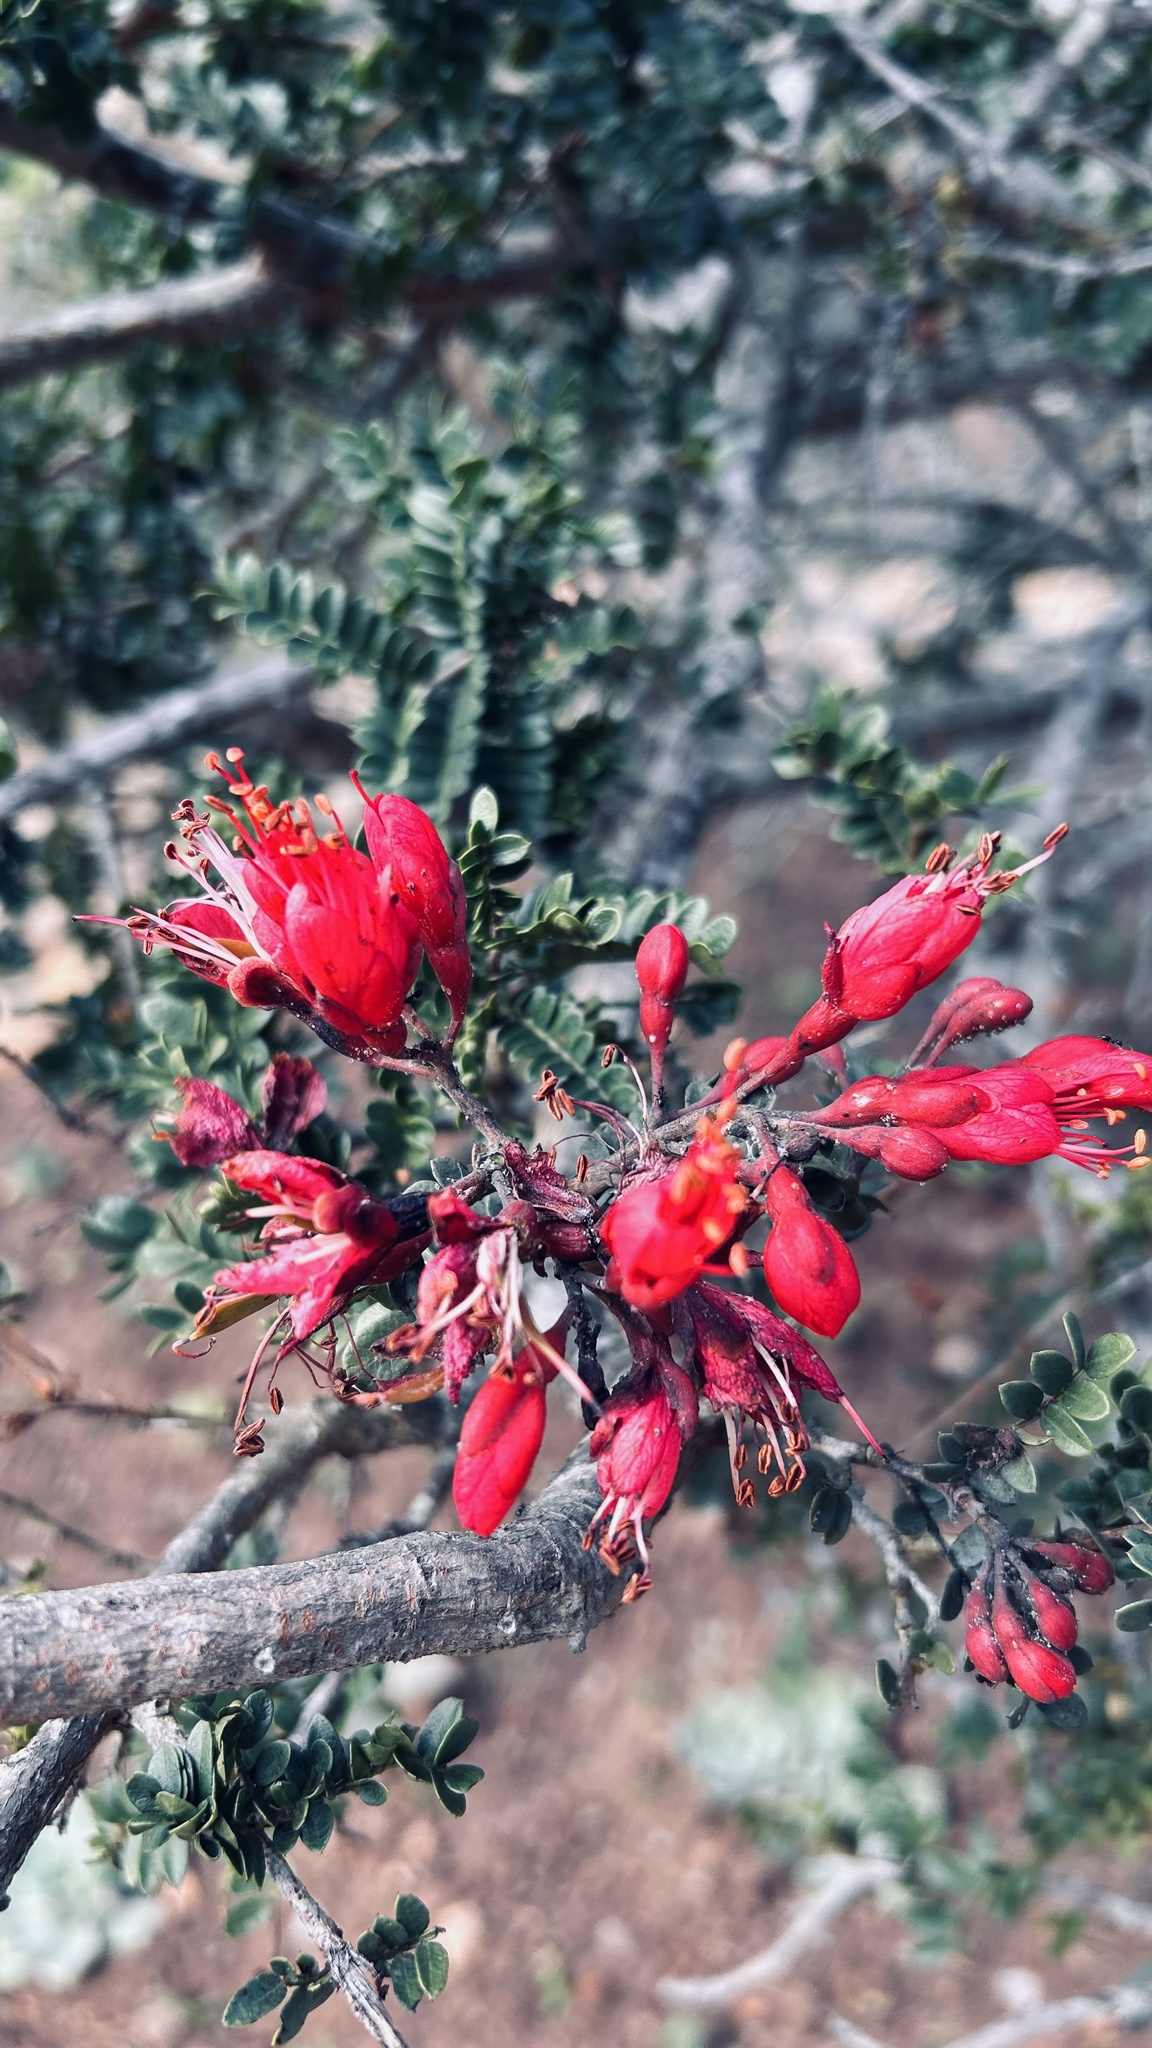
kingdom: Plantae
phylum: Tracheophyta
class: Magnoliopsida
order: Fabales
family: Fabaceae
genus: Schotia
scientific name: Schotia afra
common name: Hottentot's bean
